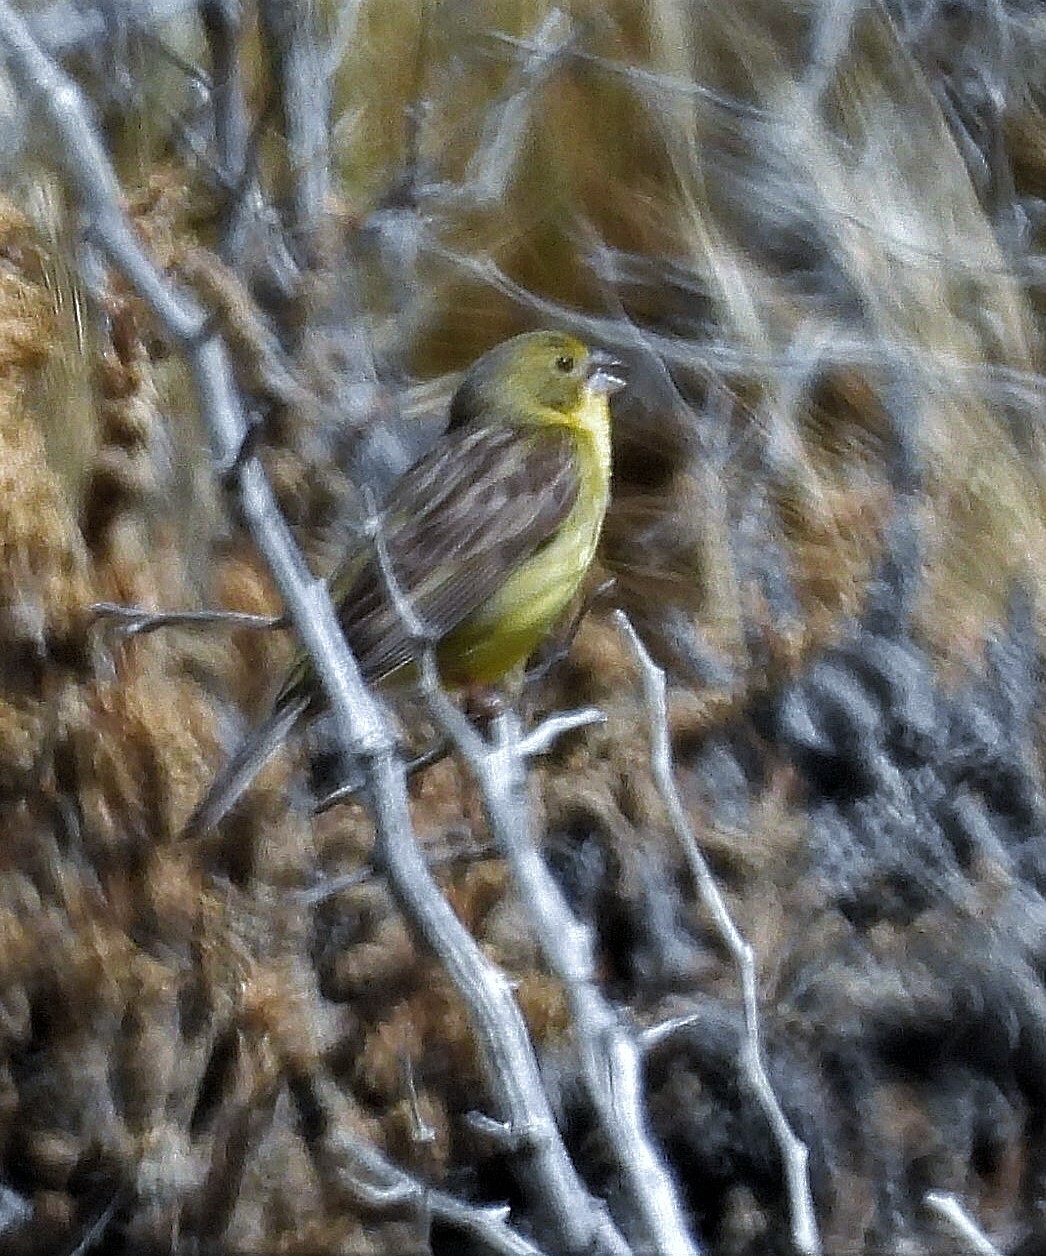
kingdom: Animalia
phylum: Chordata
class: Aves
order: Passeriformes
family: Thraupidae
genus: Sicalis
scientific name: Sicalis luteola
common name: Grassland yellow-finch
